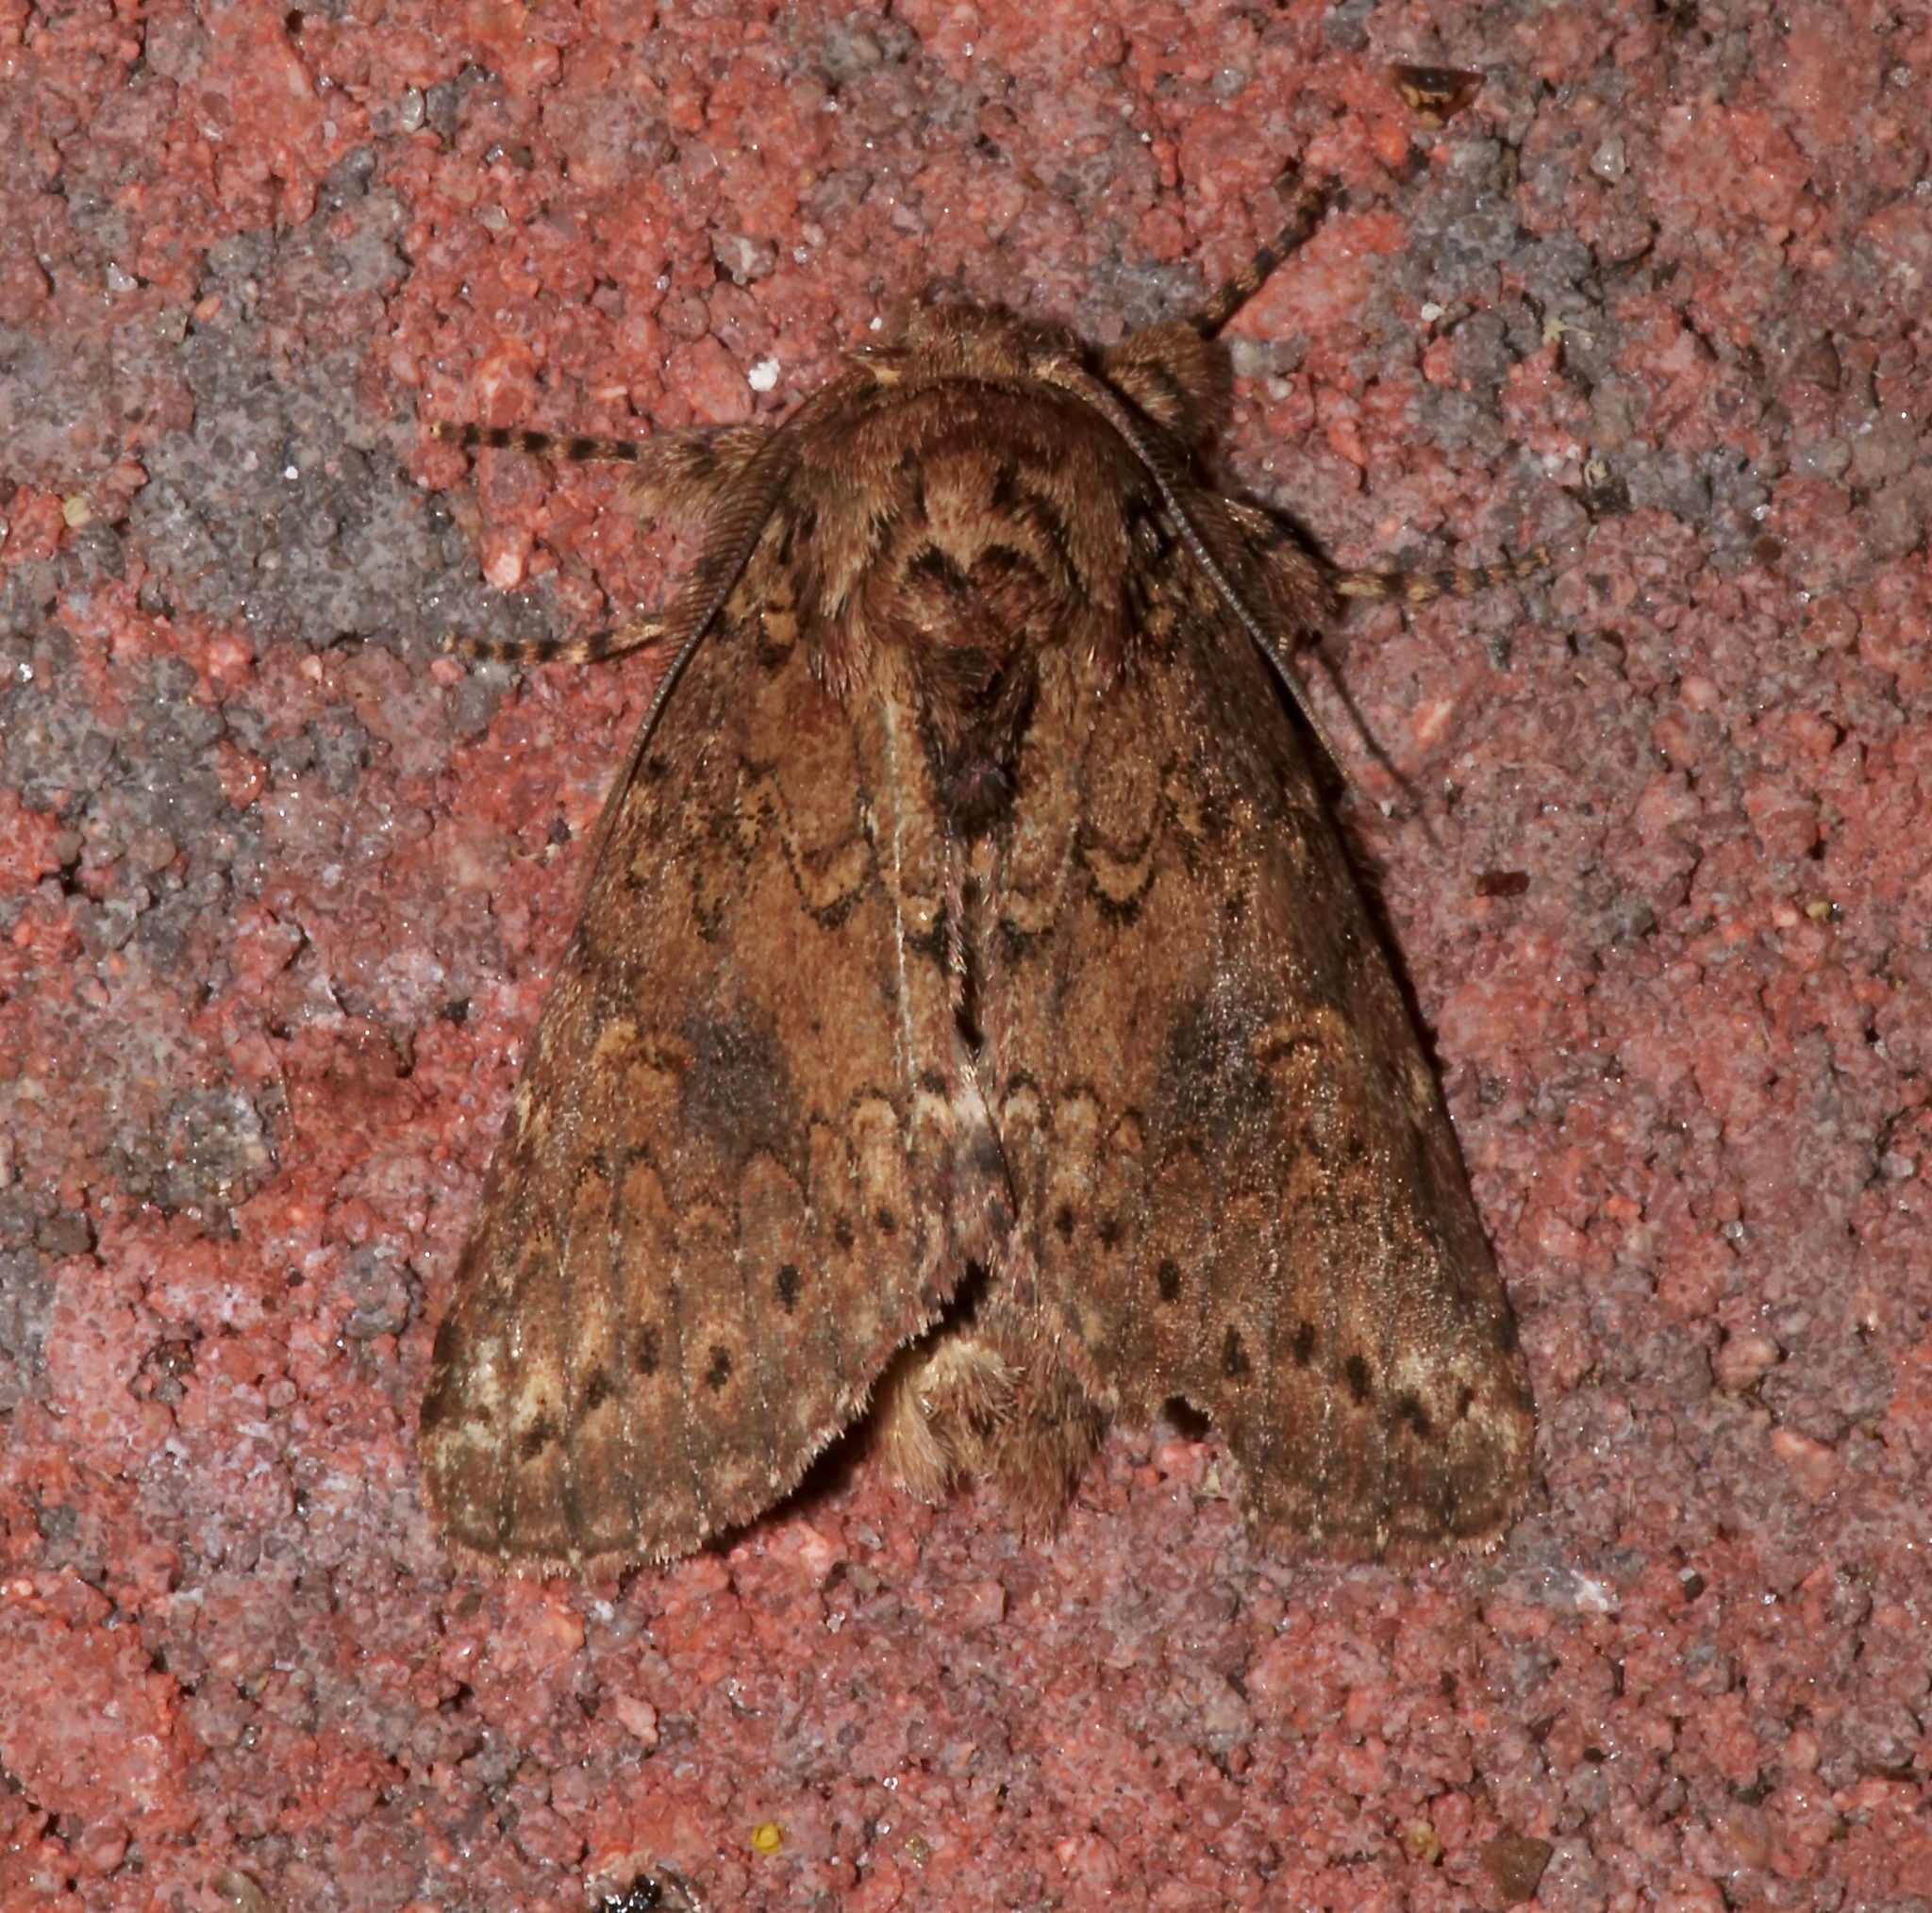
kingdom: Animalia
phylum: Arthropoda
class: Insecta
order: Lepidoptera
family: Notodontidae
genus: Disphragis
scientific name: Disphragis Cecrita biundata
